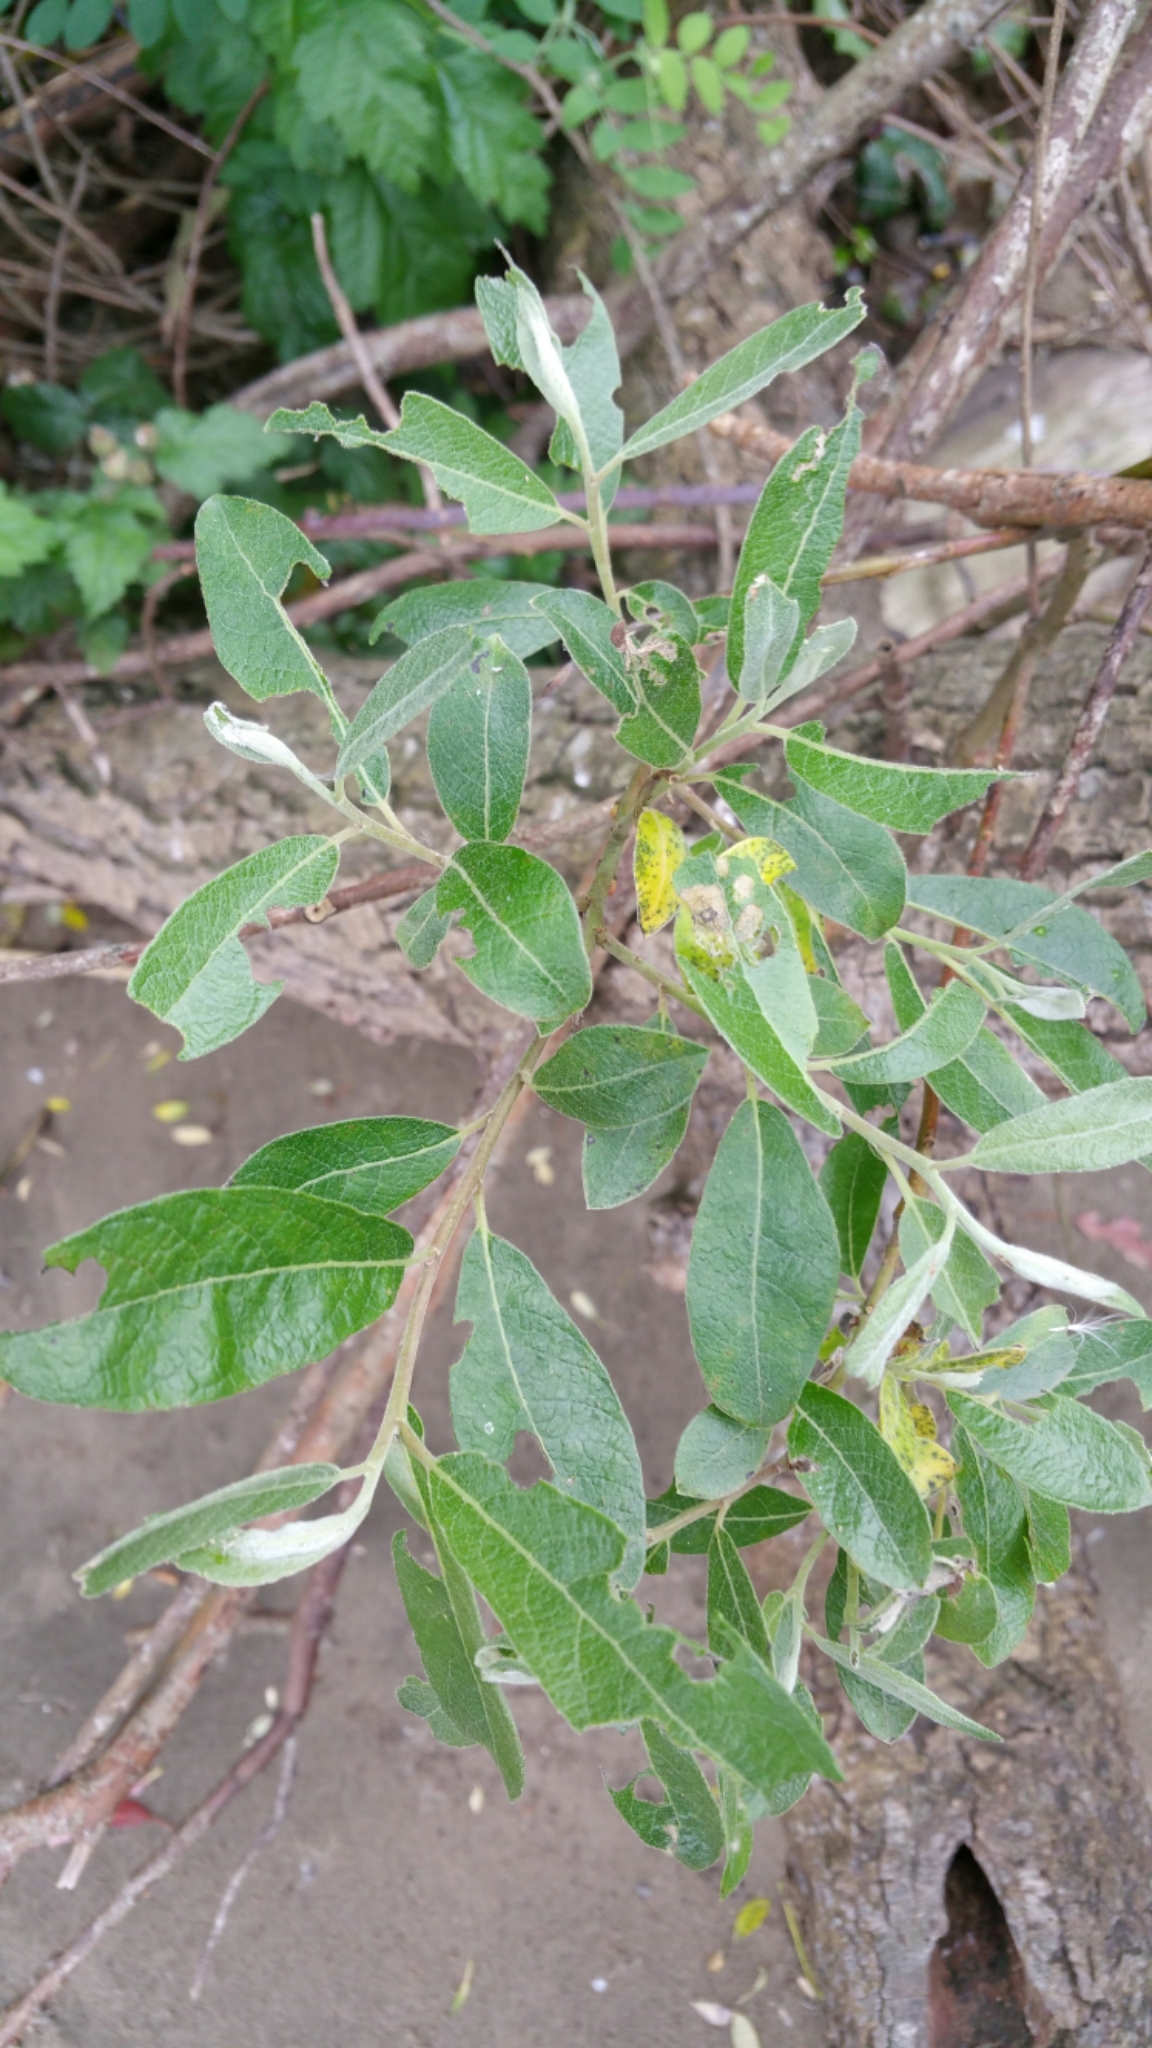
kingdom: Plantae
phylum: Tracheophyta
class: Magnoliopsida
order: Malpighiales
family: Salicaceae
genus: Salix
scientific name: Salix lasiolepis
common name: Arroyo willow
